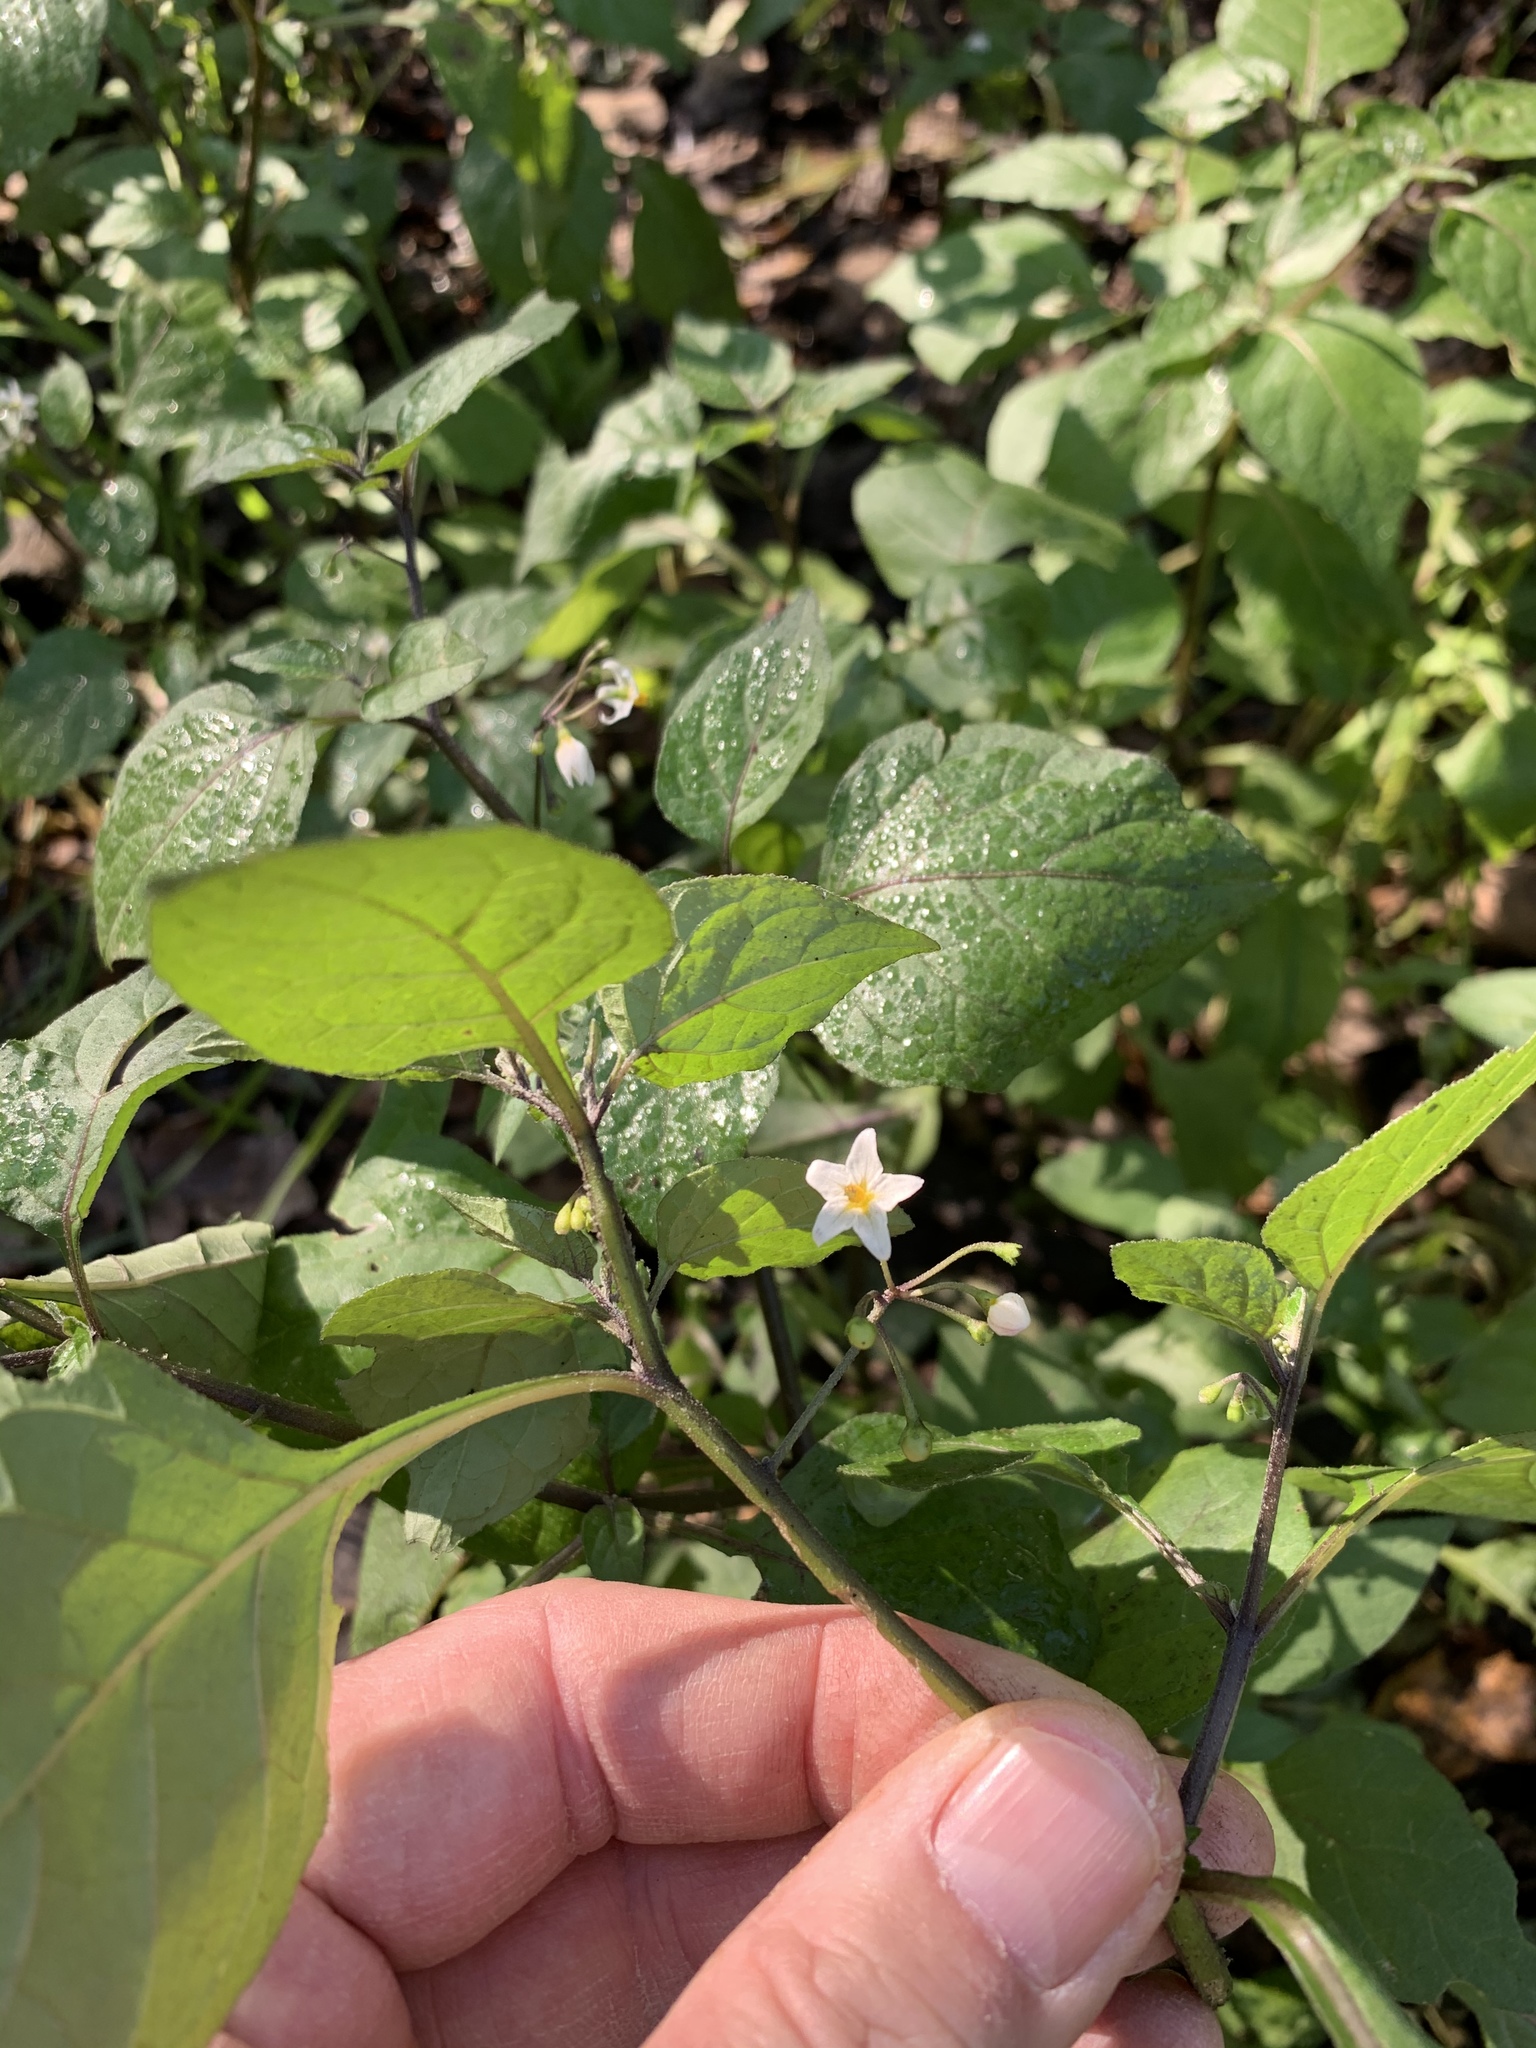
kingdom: Plantae
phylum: Tracheophyta
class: Magnoliopsida
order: Solanales
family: Solanaceae
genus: Solanum
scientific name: Solanum nigrum
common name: Black nightshade
